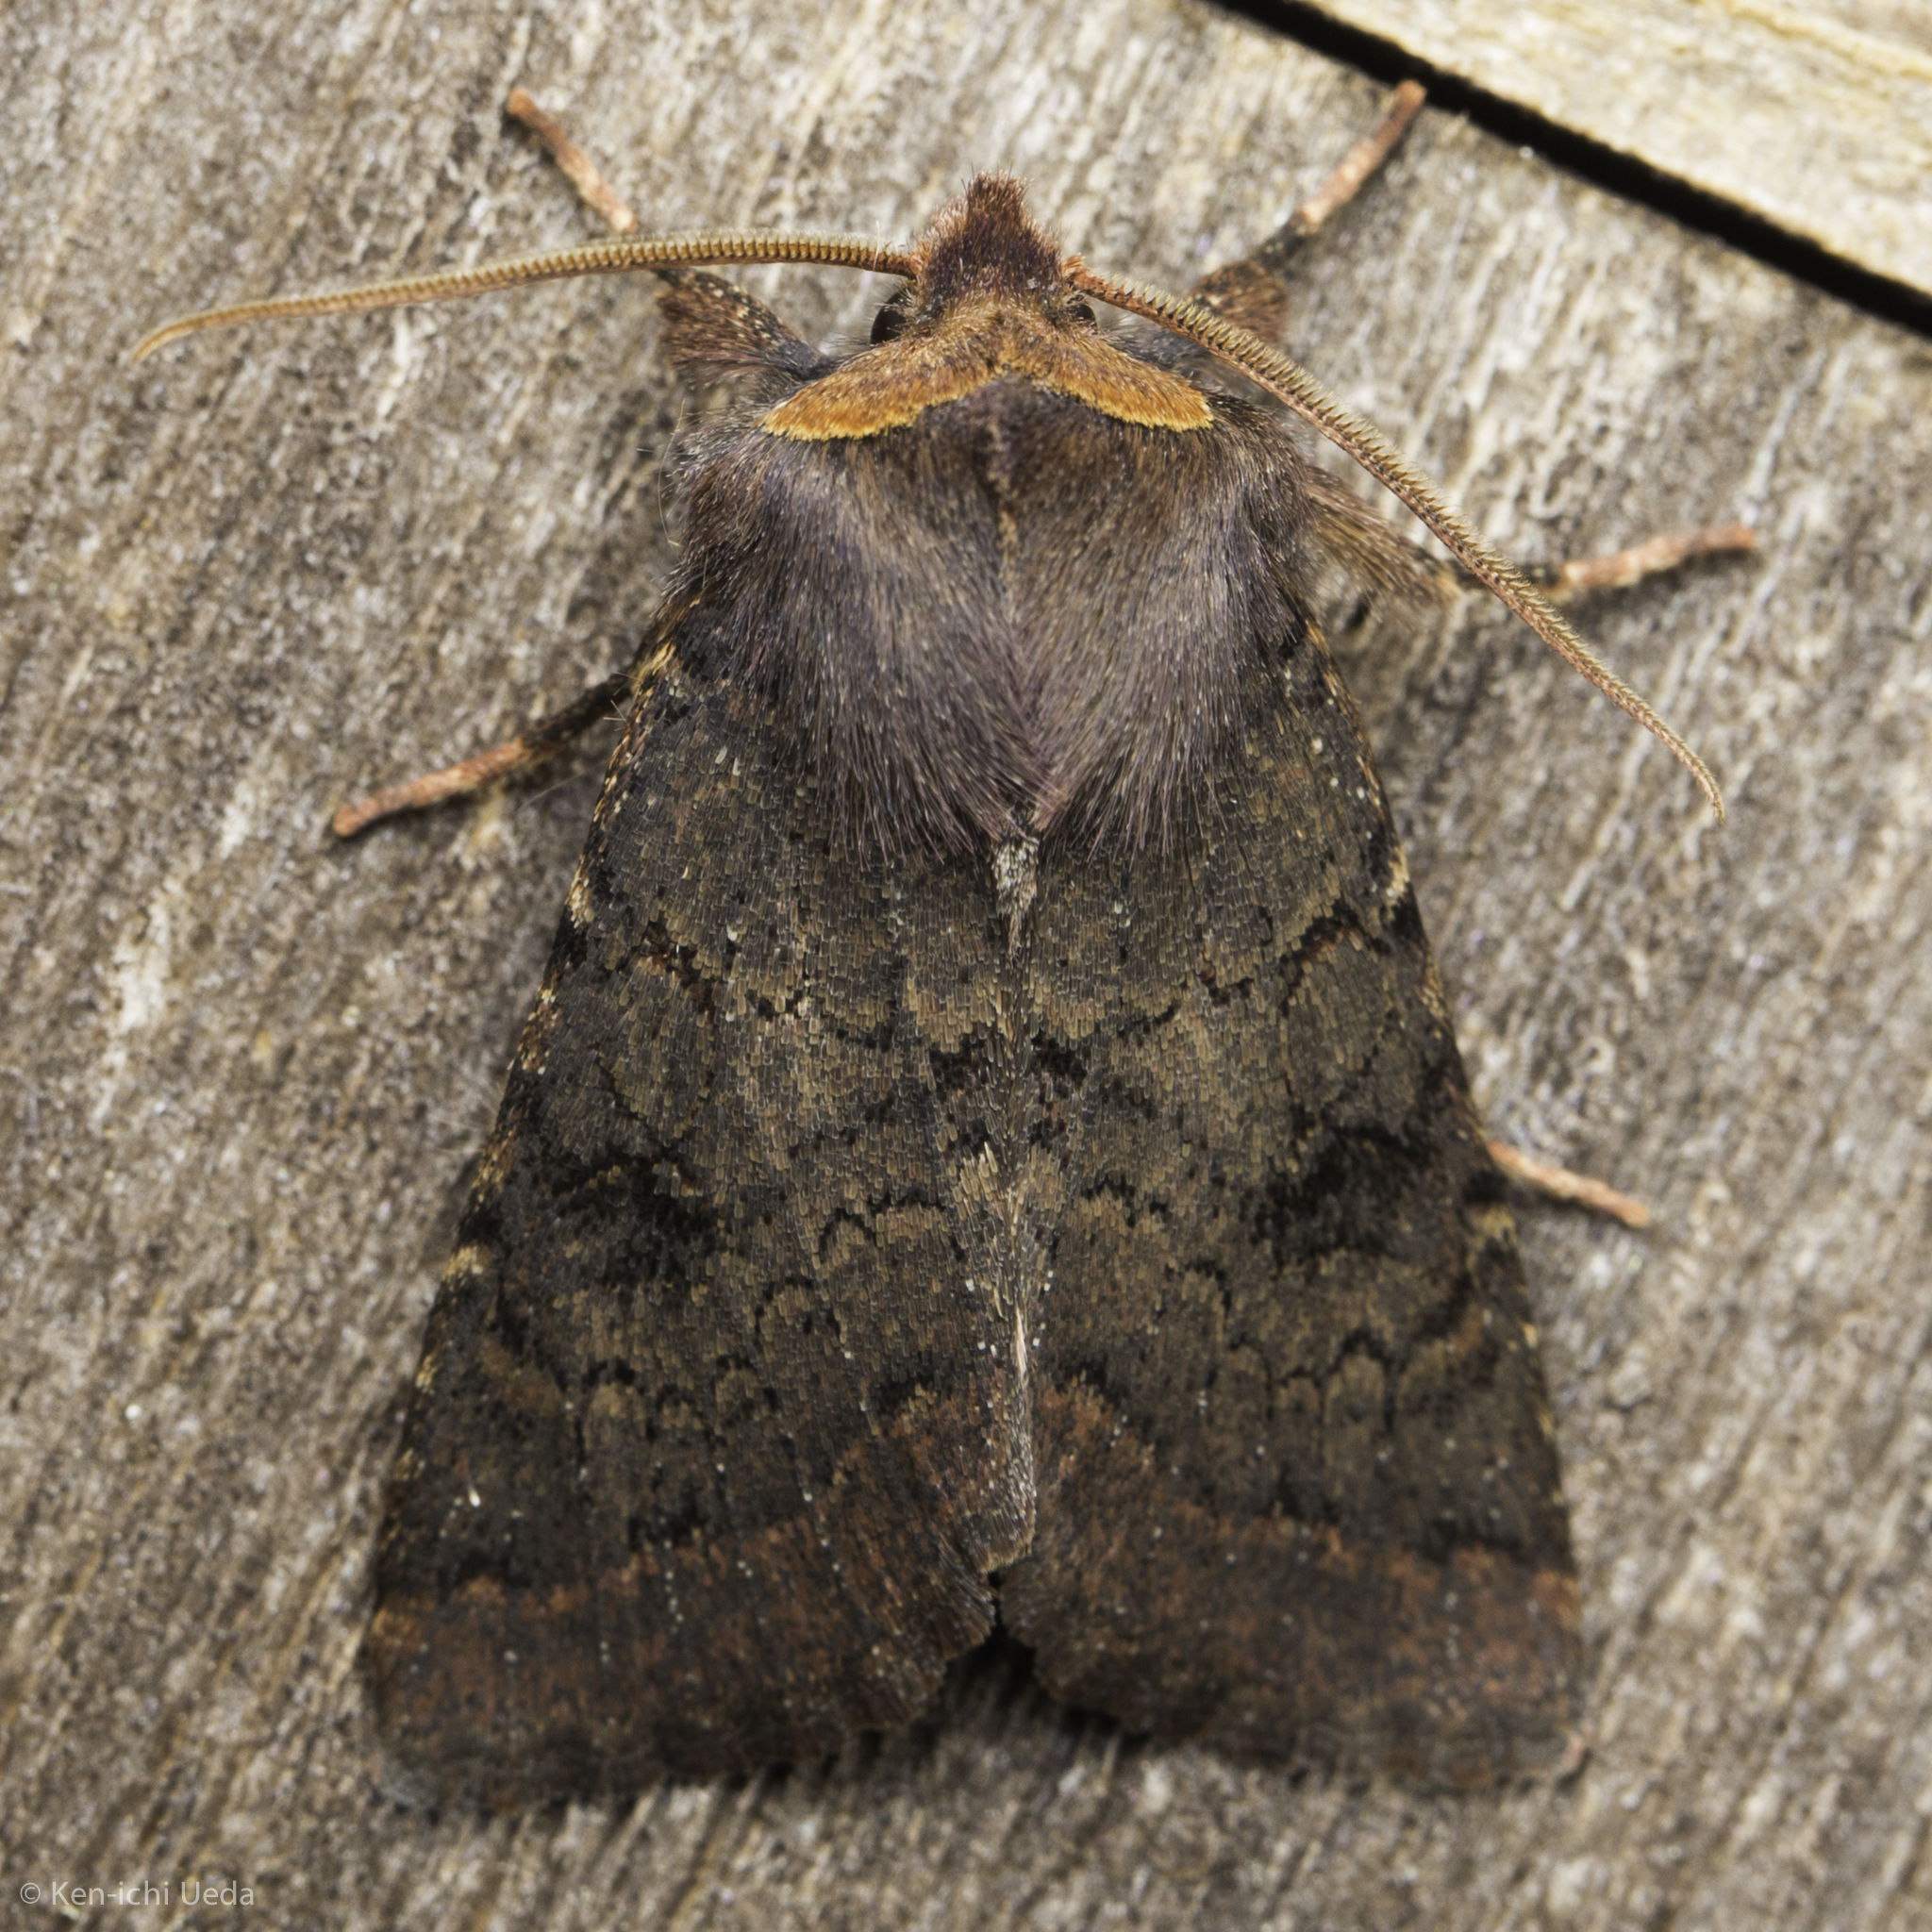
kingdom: Animalia
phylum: Arthropoda
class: Insecta
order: Lepidoptera
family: Noctuidae
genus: Orthosia
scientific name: Orthosia praeses
